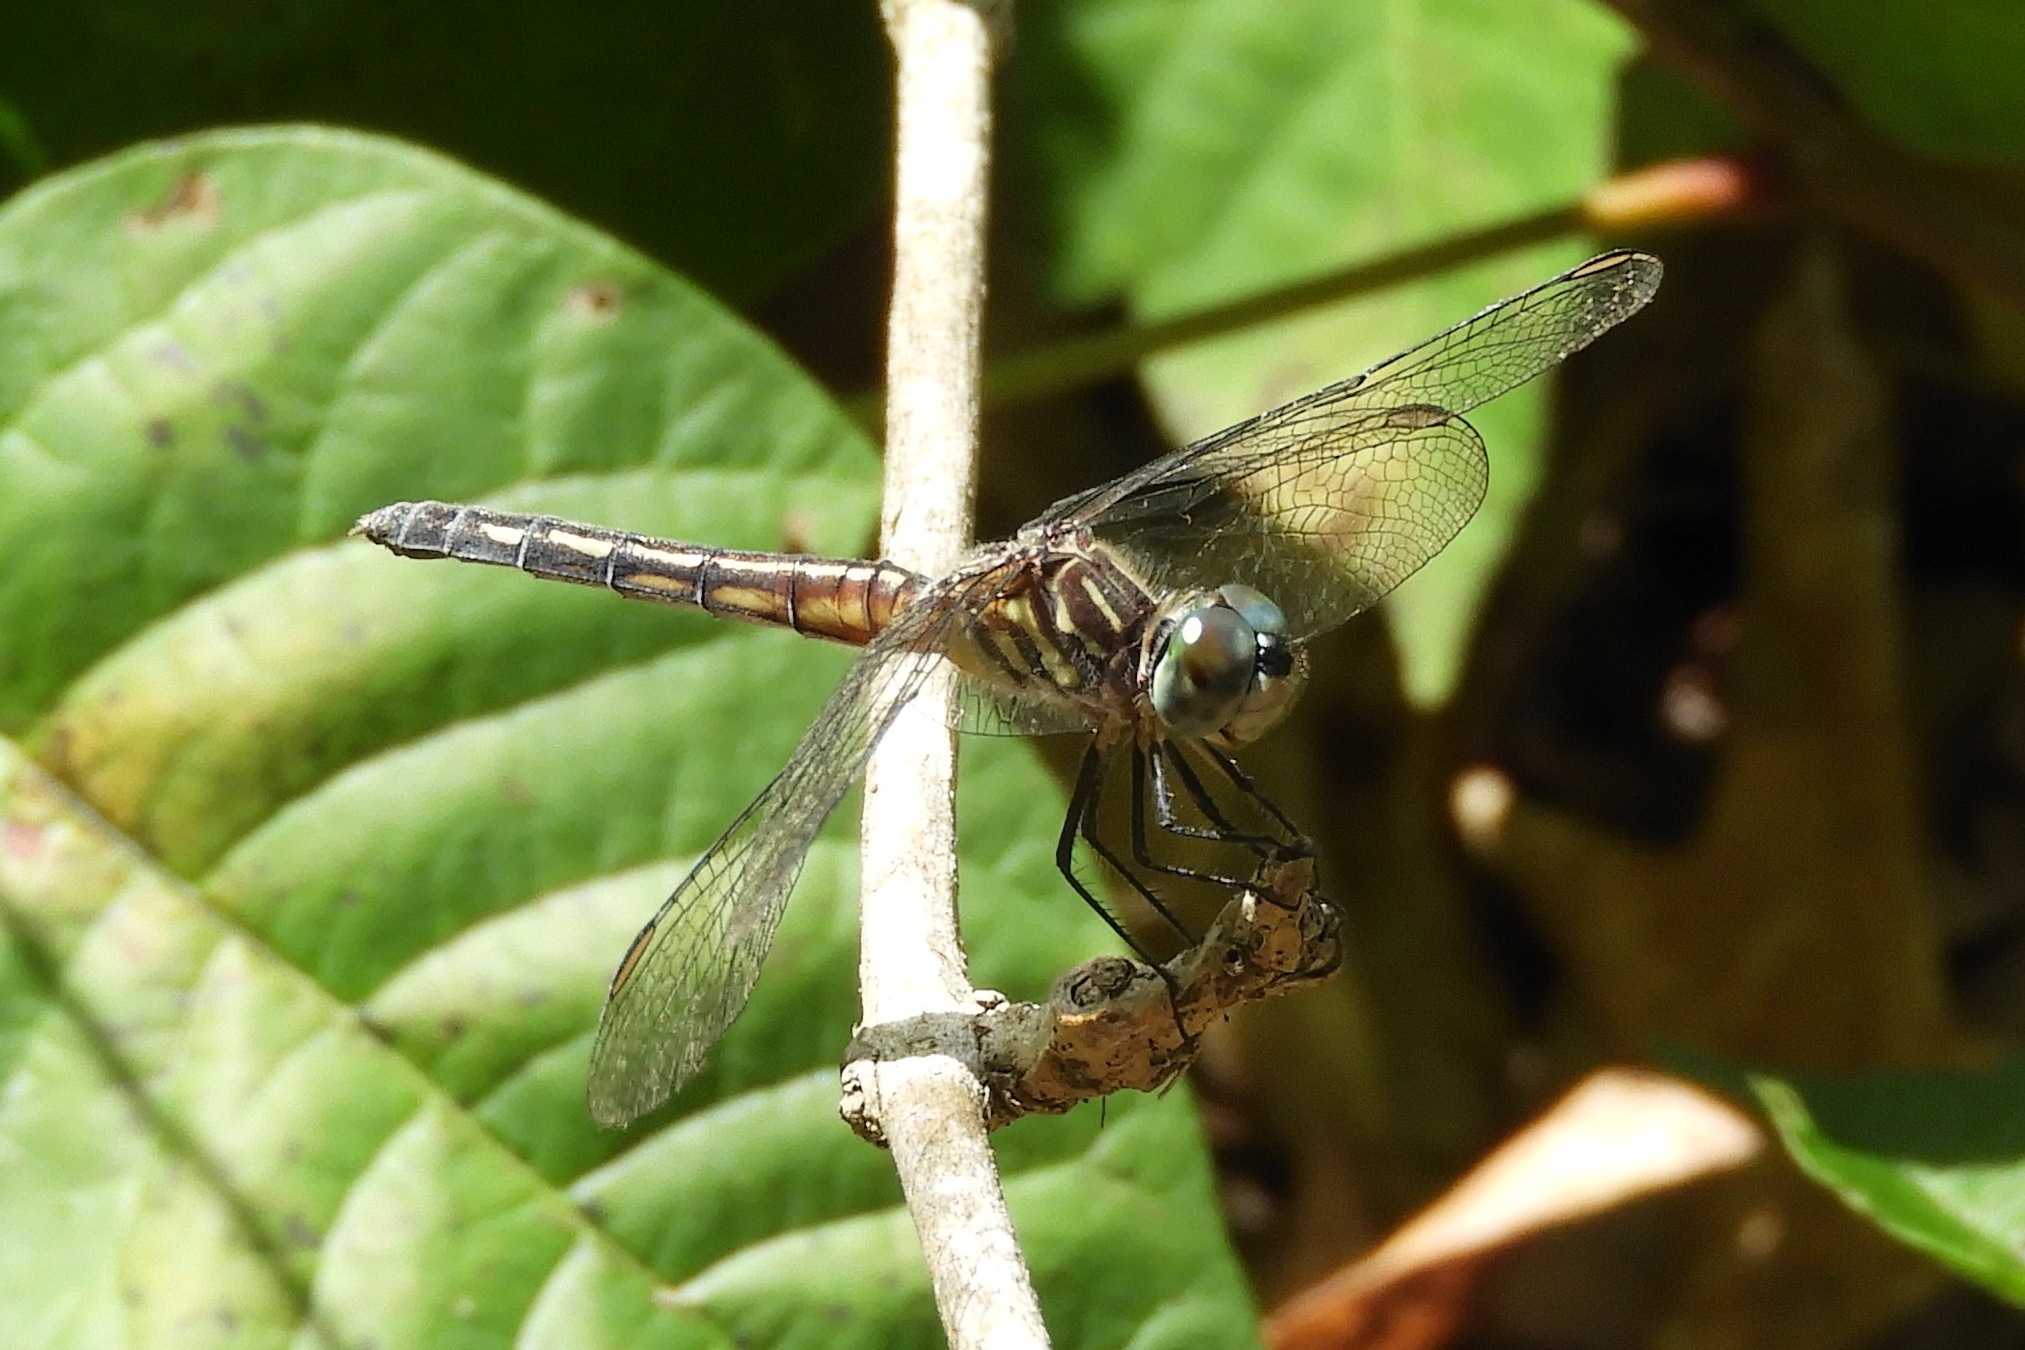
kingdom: Animalia
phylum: Arthropoda
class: Insecta
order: Odonata
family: Libellulidae
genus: Pachydiplax
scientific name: Pachydiplax longipennis
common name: Blue dasher
